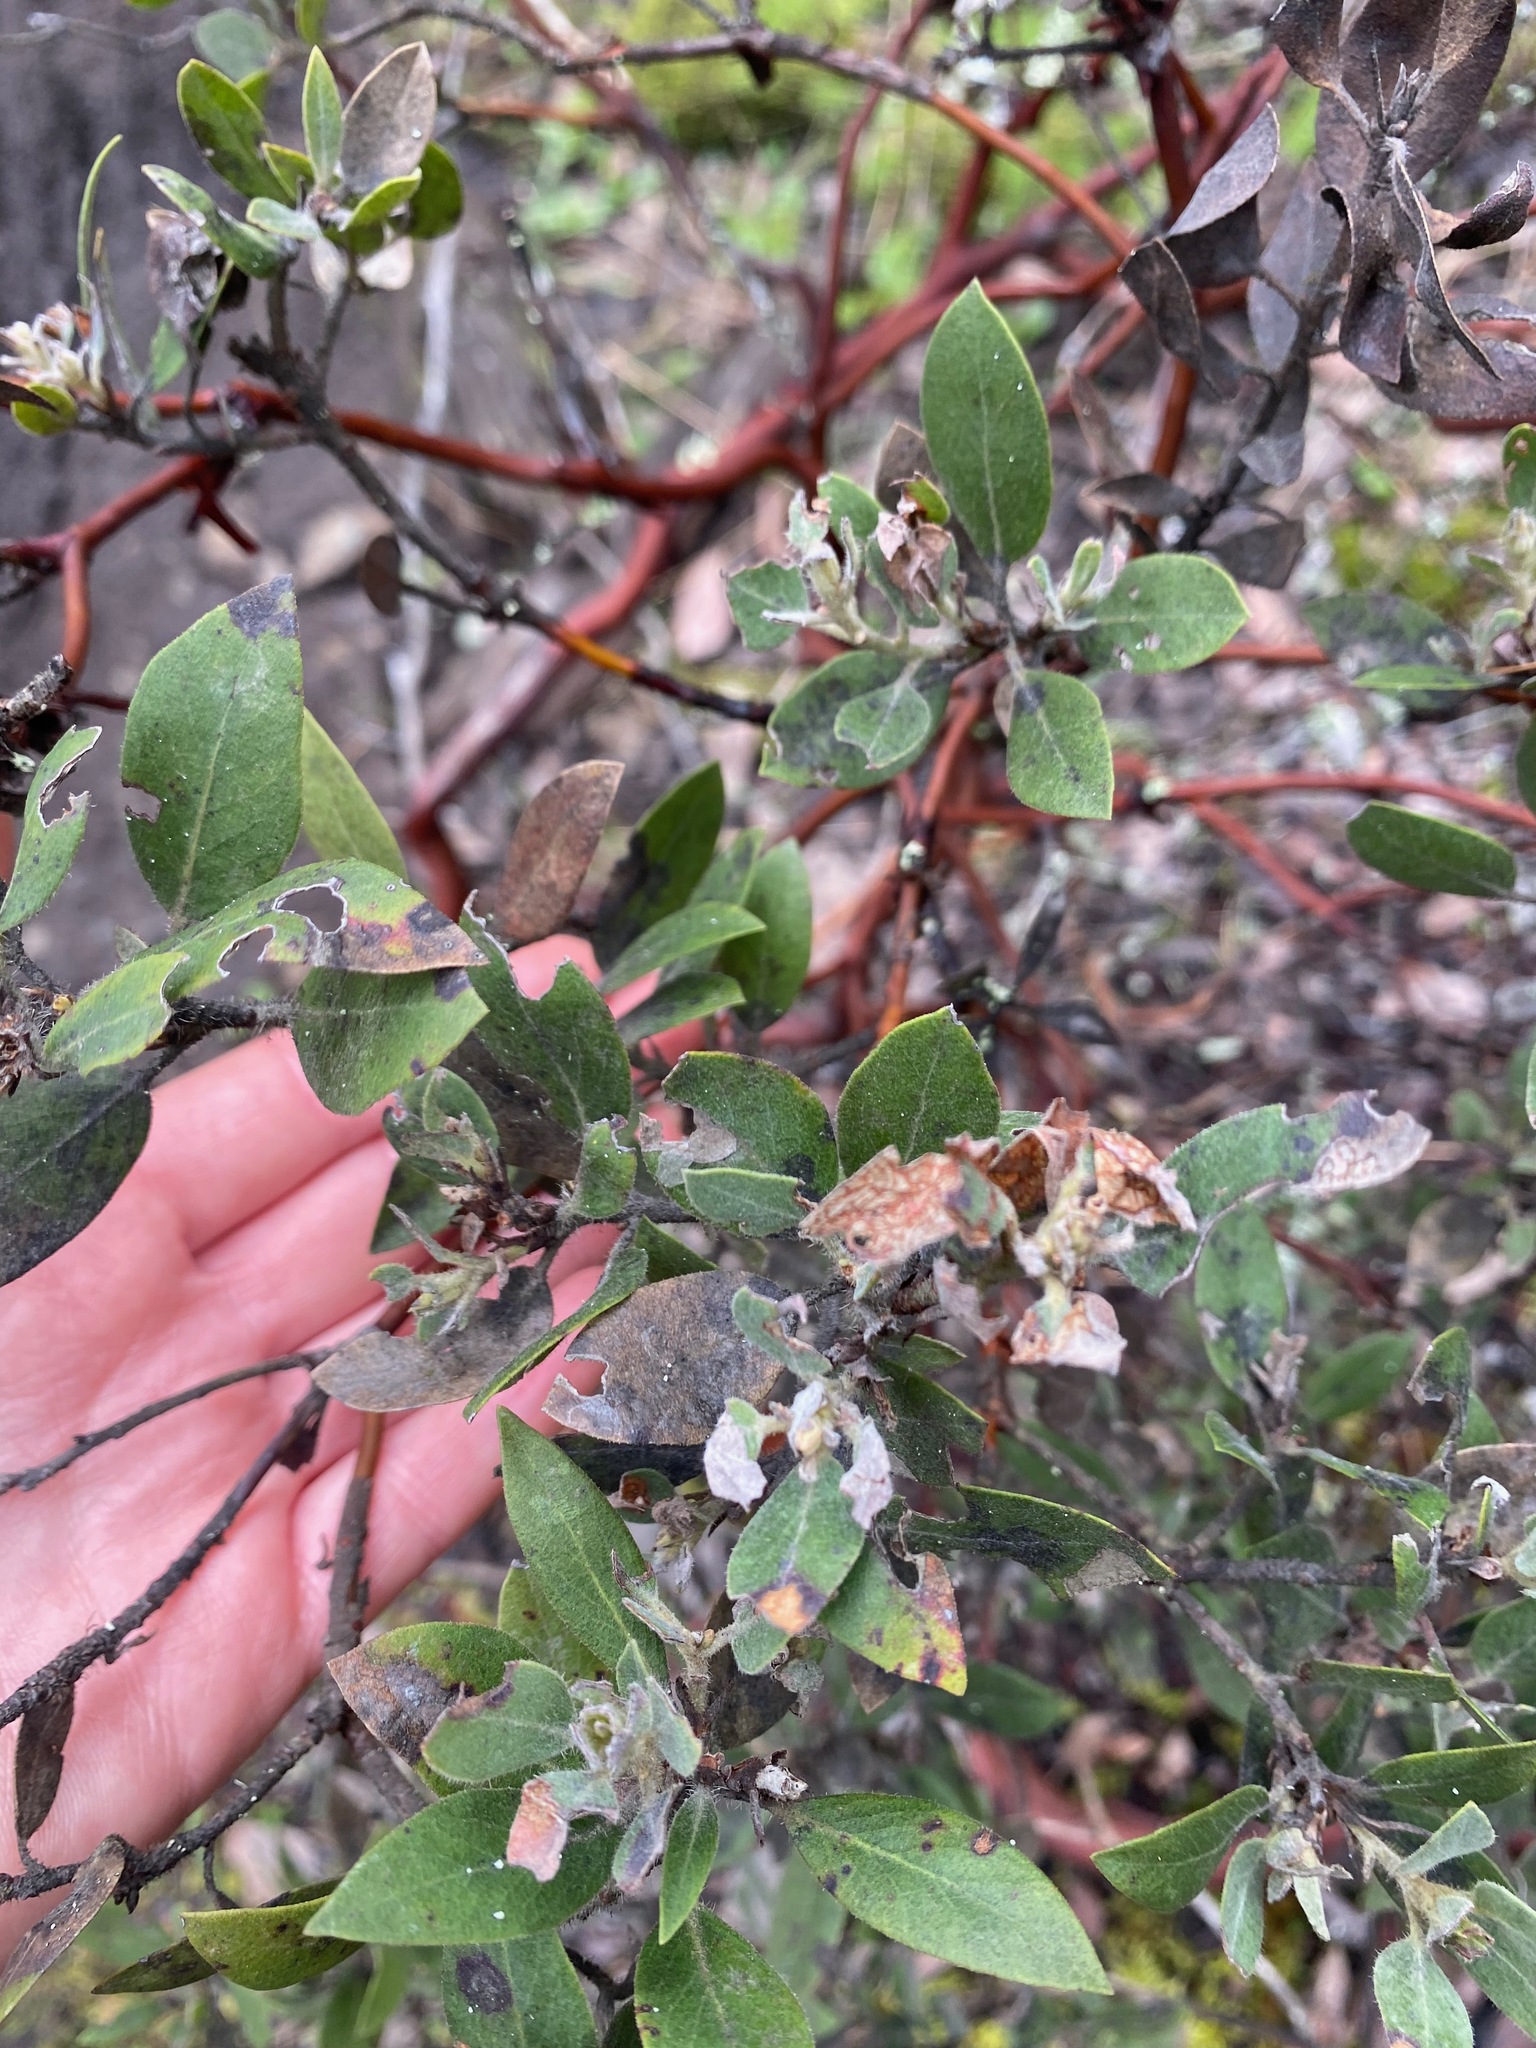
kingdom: Plantae
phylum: Tracheophyta
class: Magnoliopsida
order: Ericales
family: Ericaceae
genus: Arctostaphylos
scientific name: Arctostaphylos columbiana
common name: Bristly bearberry
